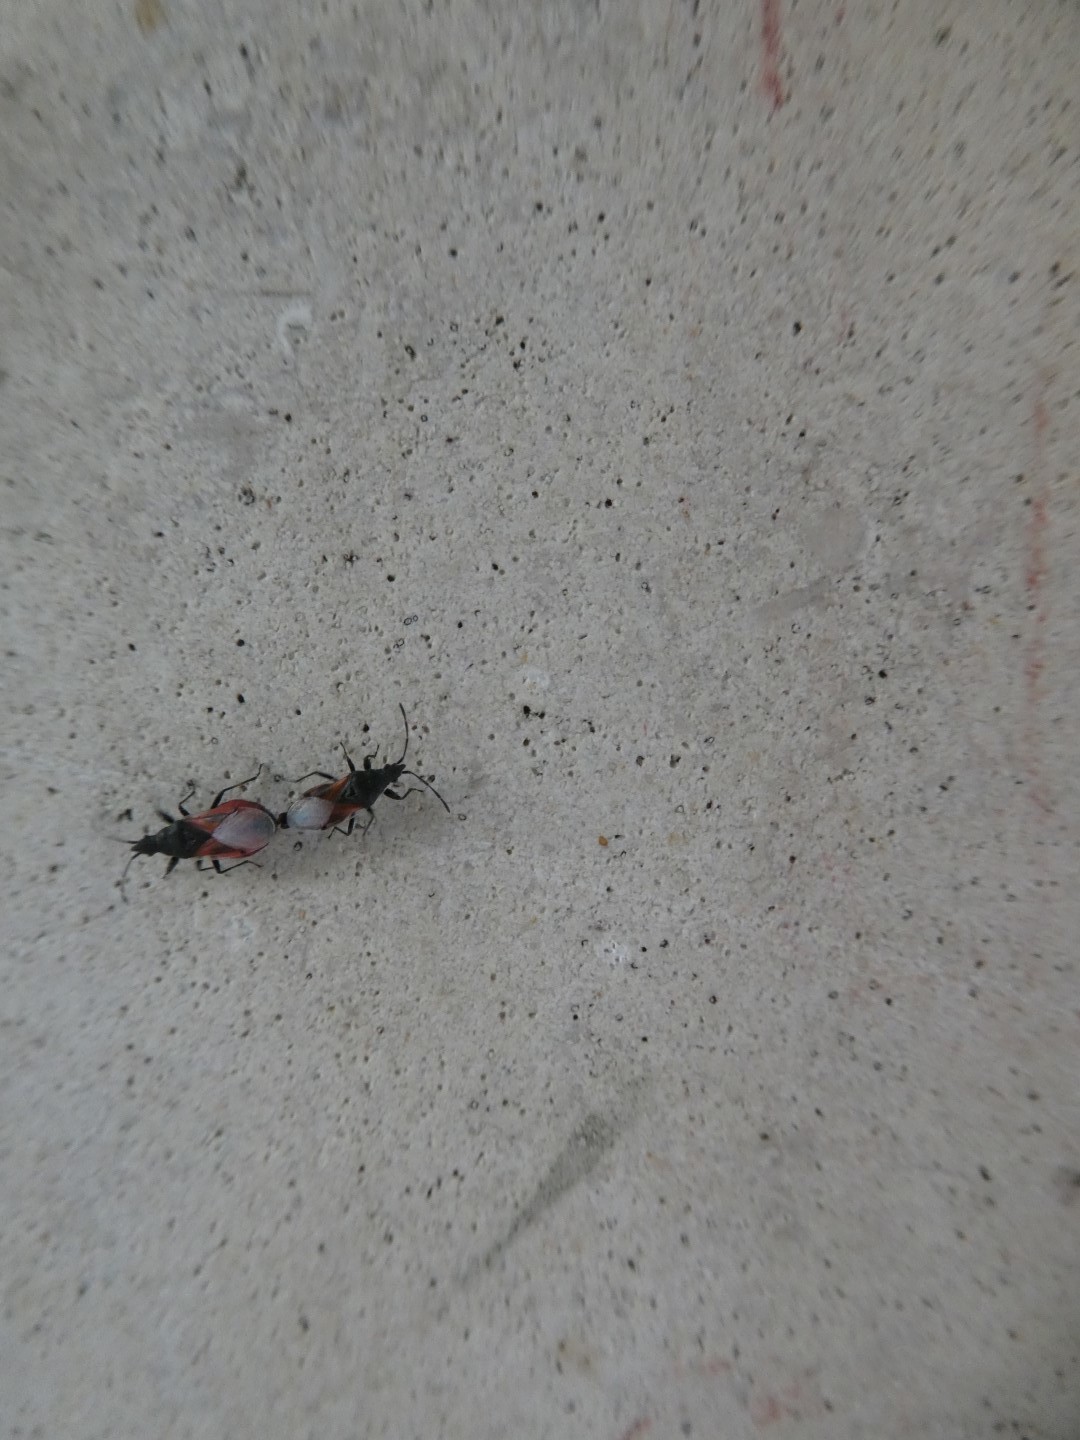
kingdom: Animalia
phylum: Arthropoda
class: Insecta
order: Hemiptera
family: Oxycarenidae
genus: Oxycarenus
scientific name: Oxycarenus lavaterae
